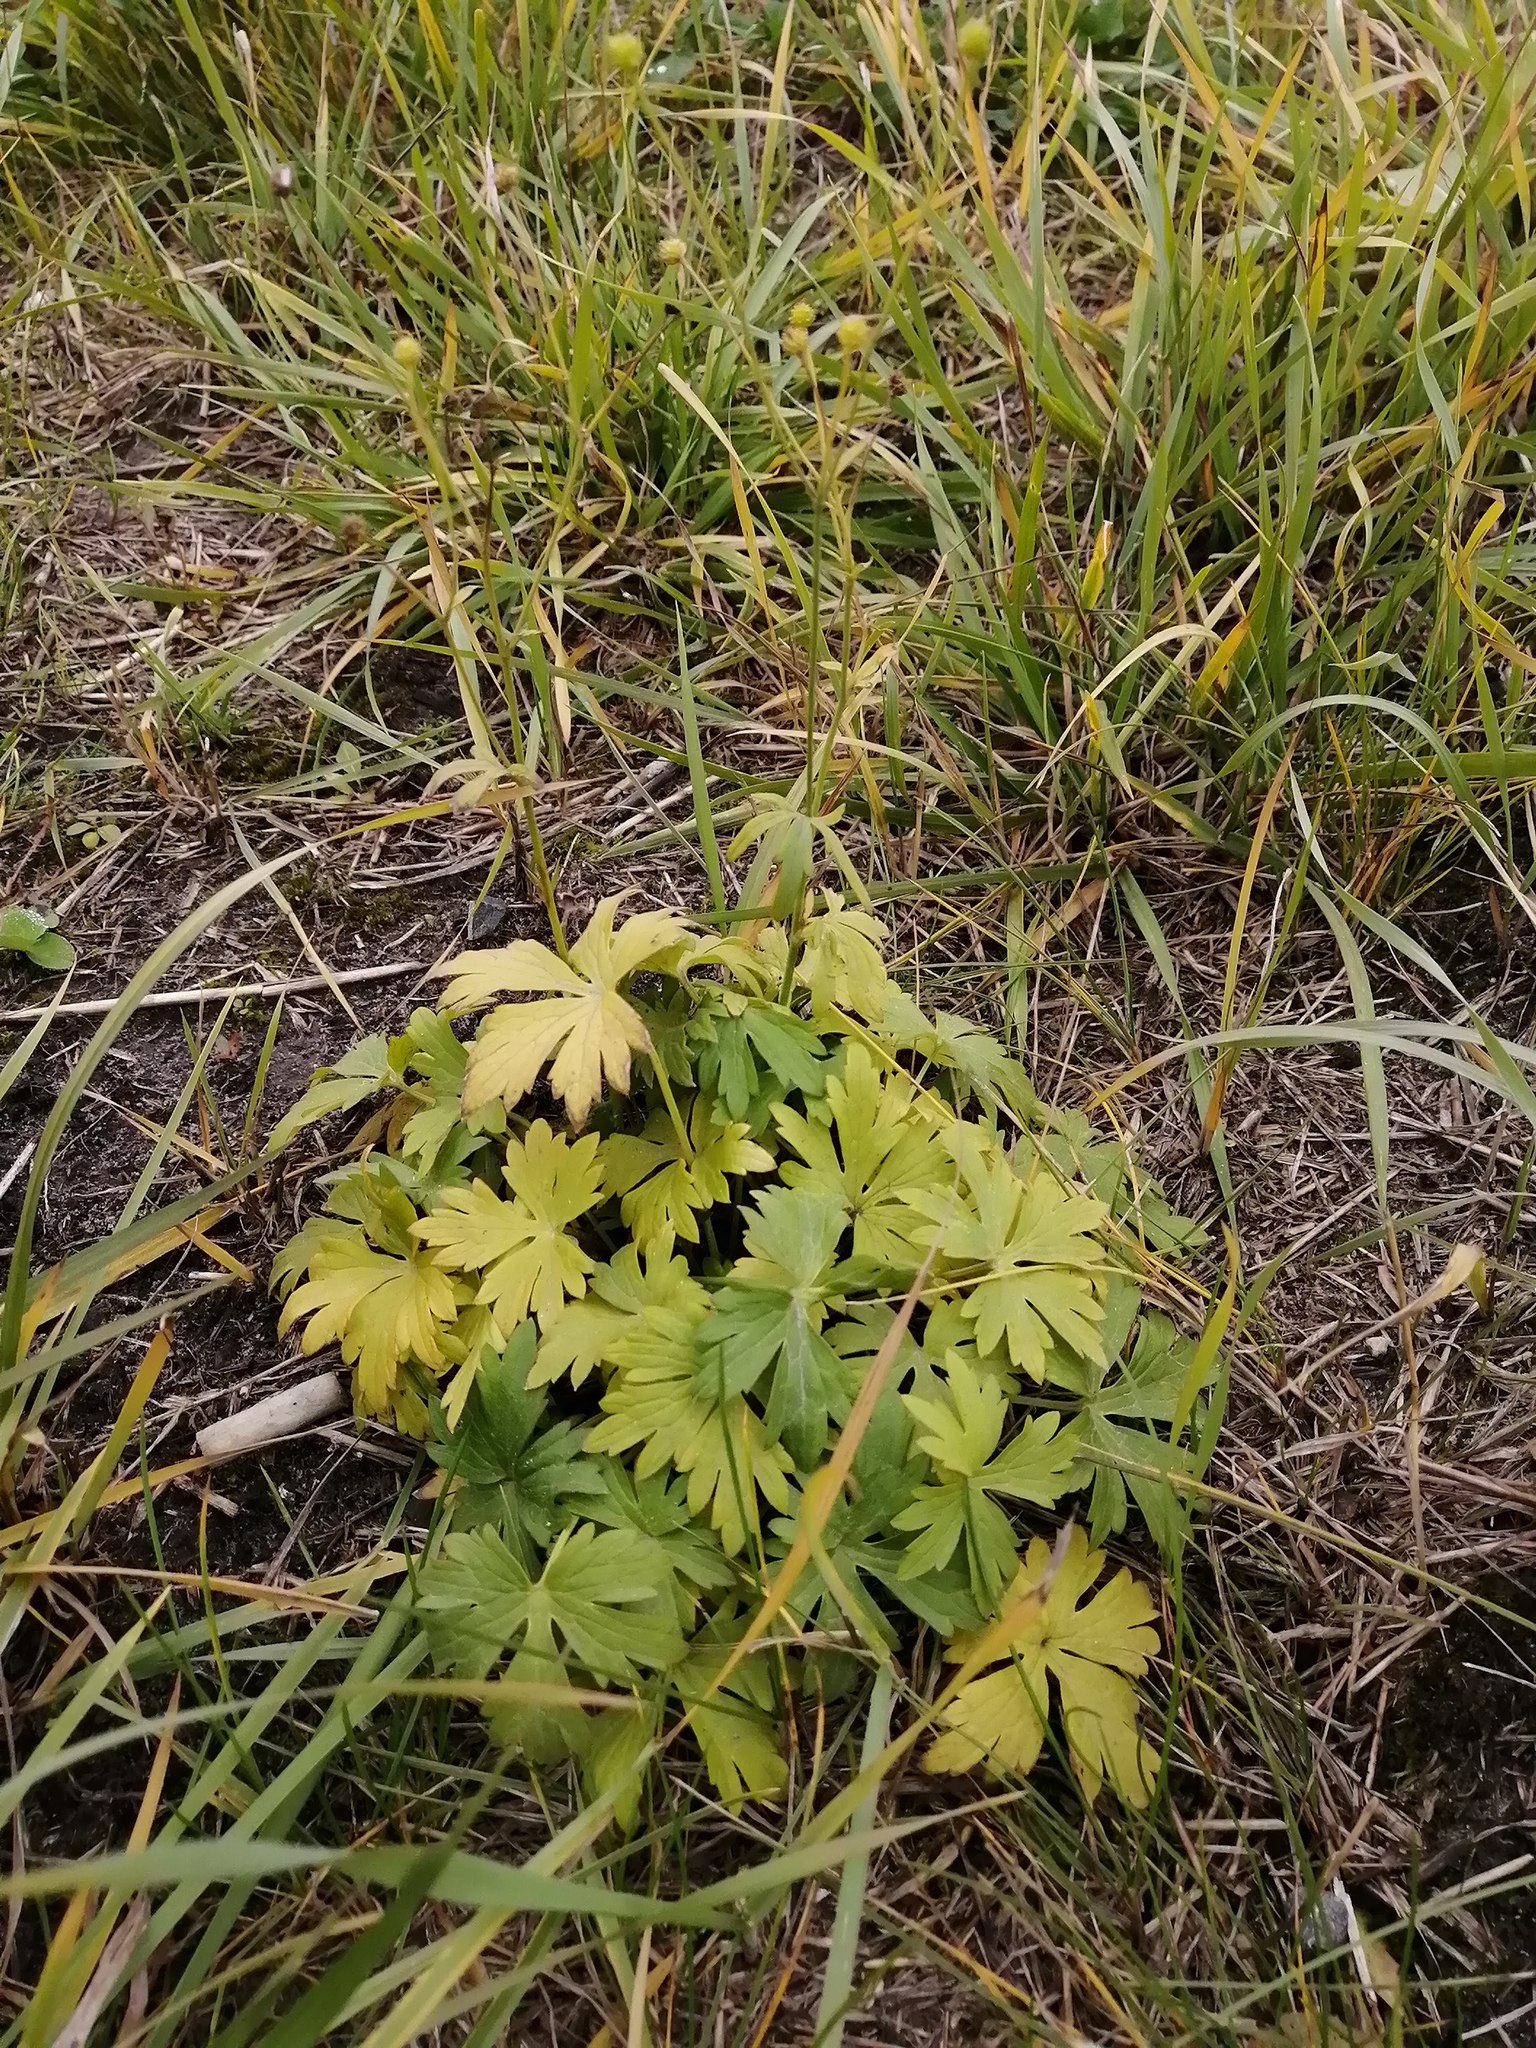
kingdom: Plantae
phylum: Tracheophyta
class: Magnoliopsida
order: Ranunculales
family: Ranunculaceae
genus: Ranunculus
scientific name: Ranunculus propinquus
